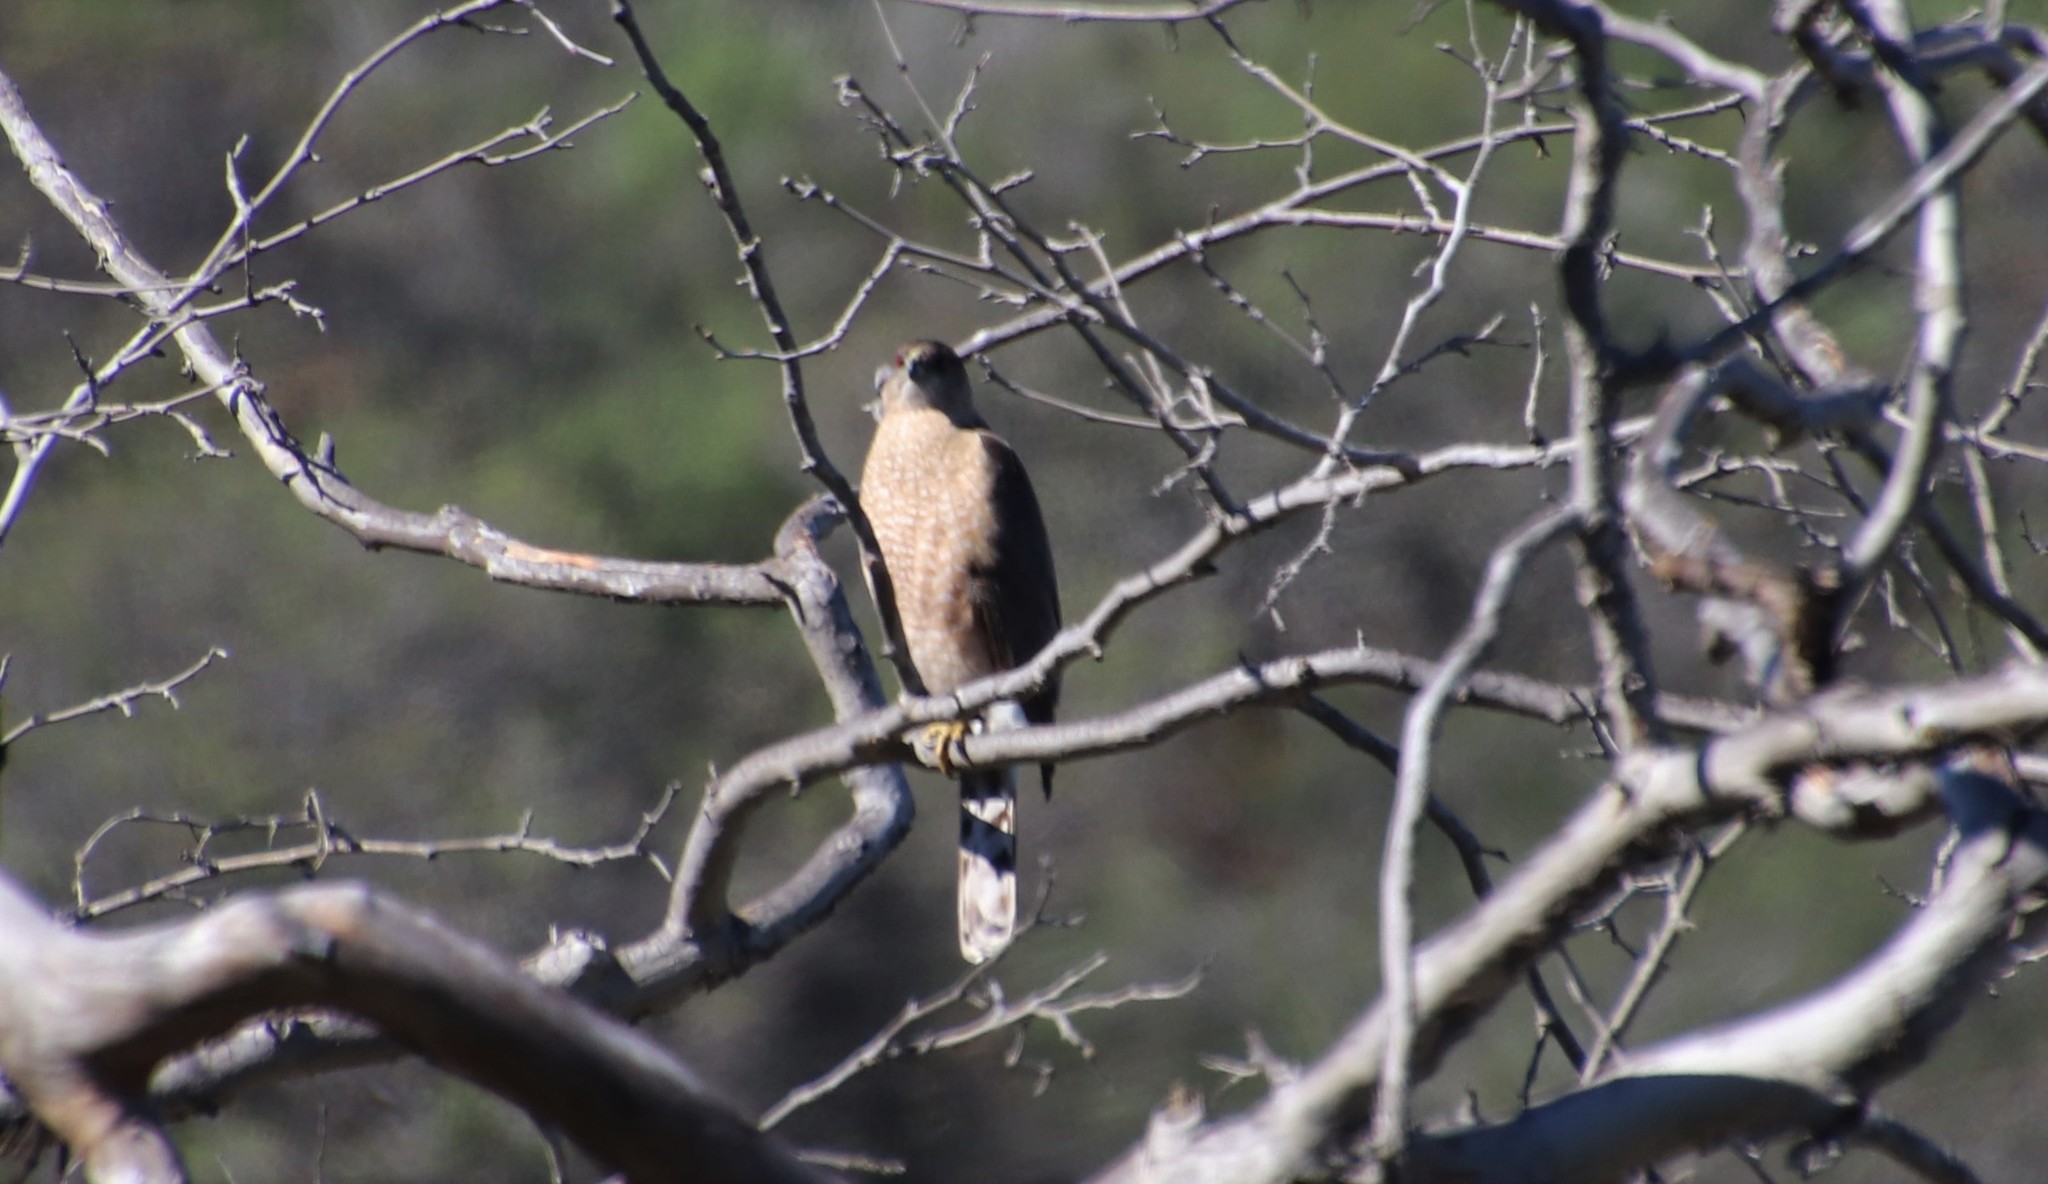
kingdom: Animalia
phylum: Chordata
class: Aves
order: Accipitriformes
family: Accipitridae
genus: Accipiter
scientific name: Accipiter cooperii
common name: Cooper's hawk
